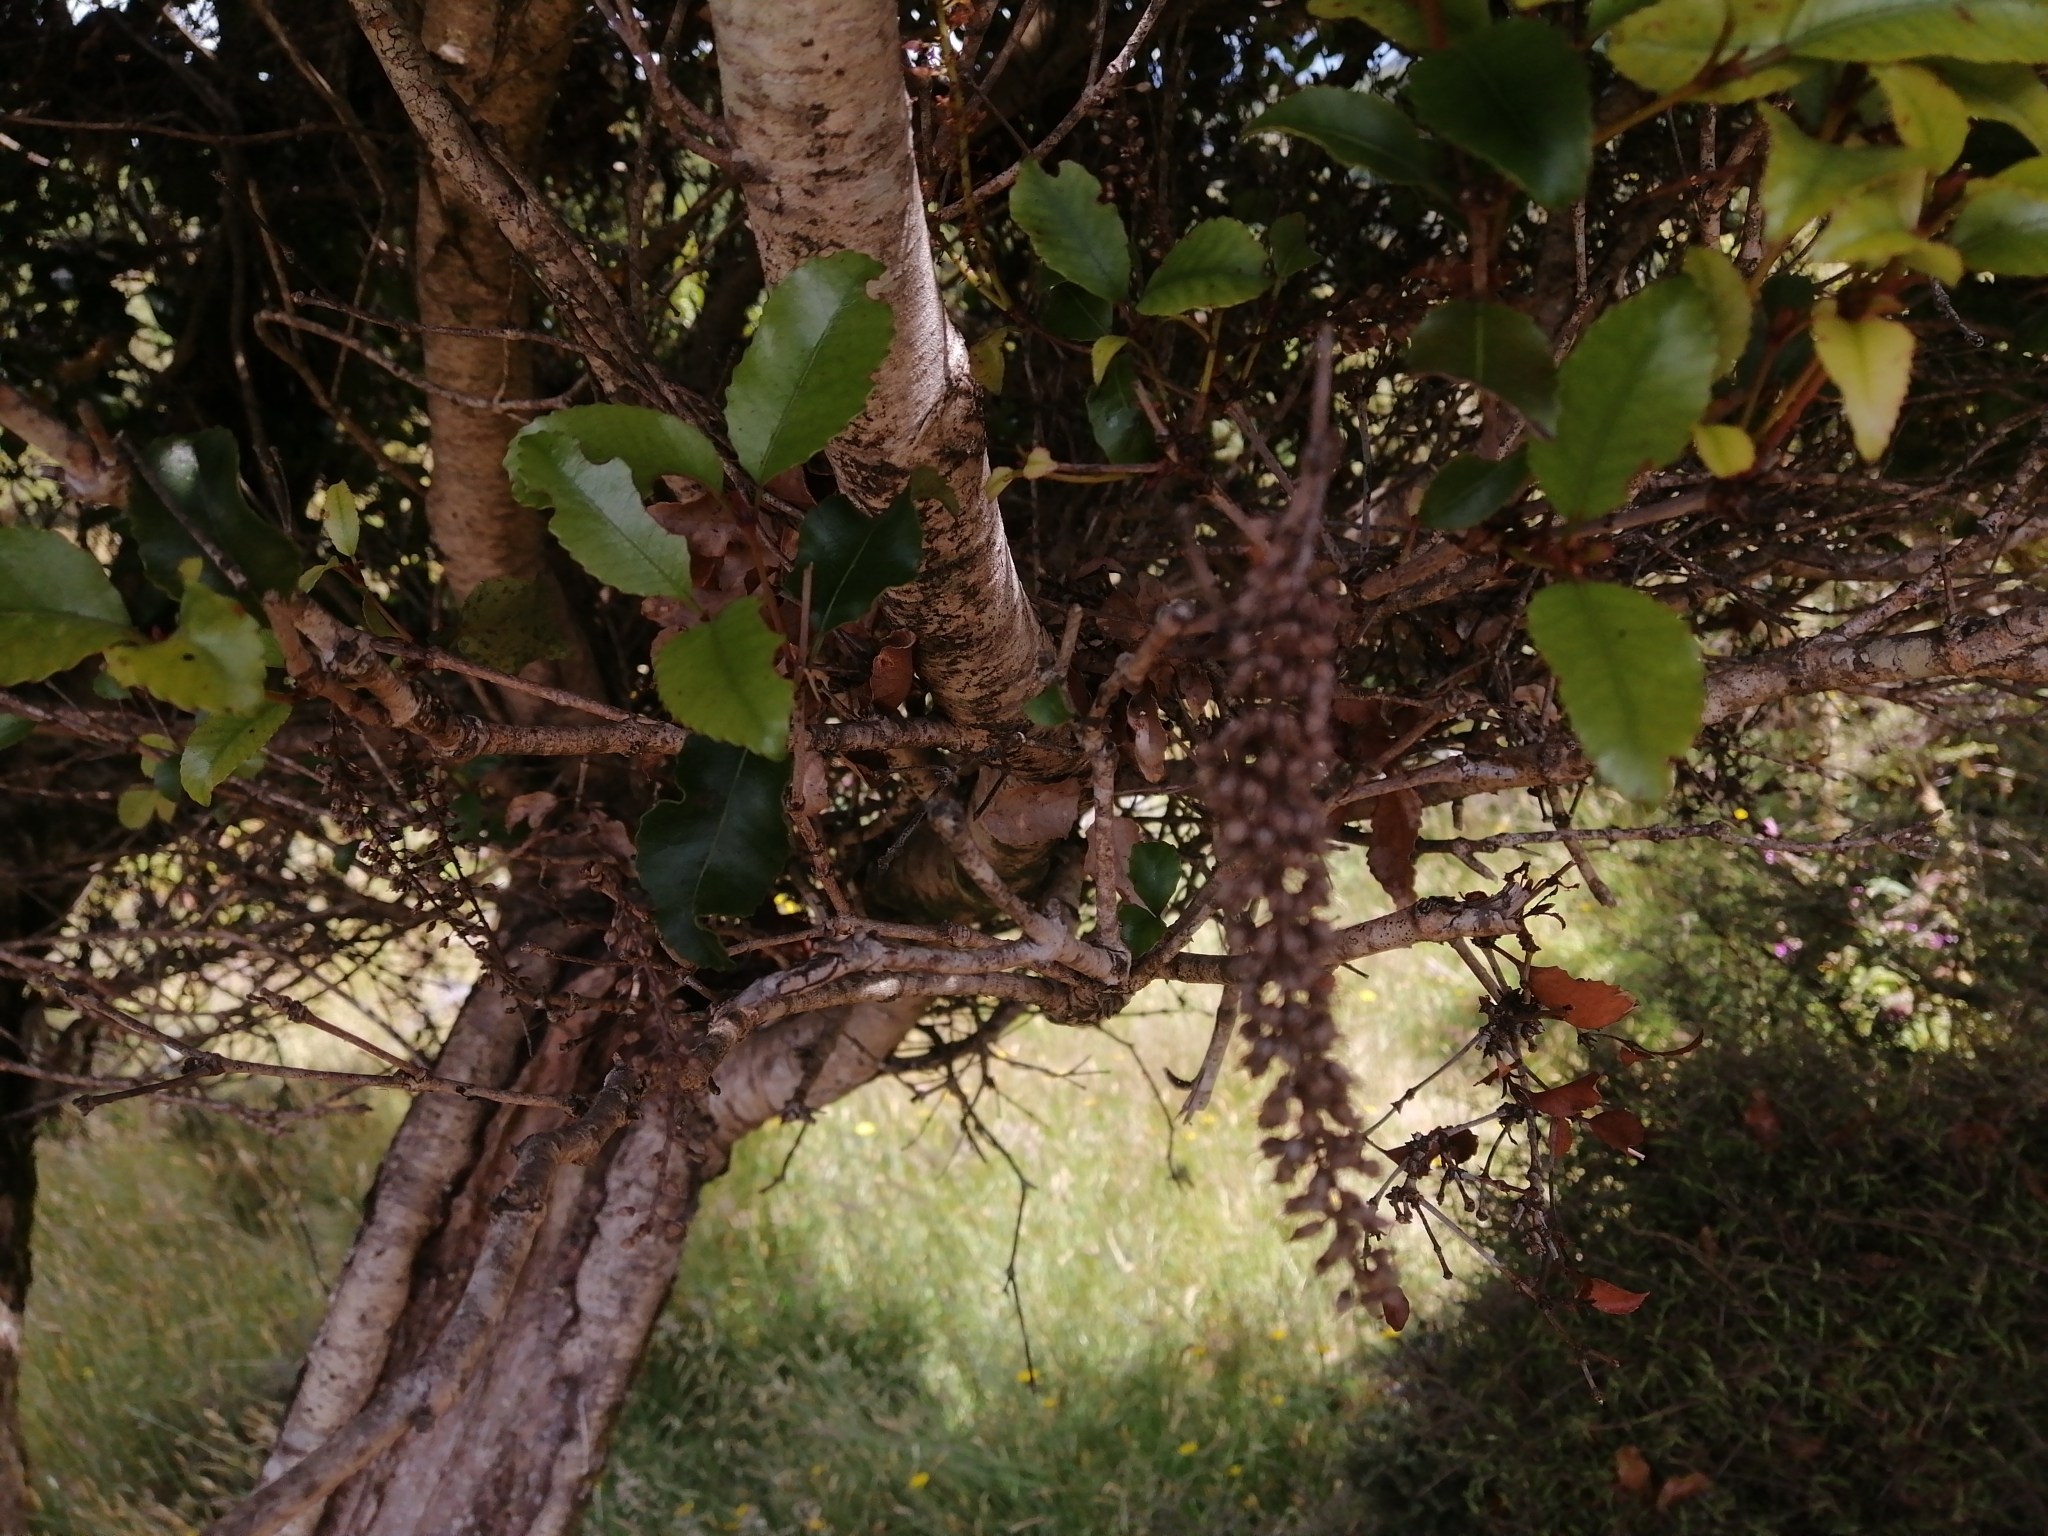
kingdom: Plantae
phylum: Tracheophyta
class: Magnoliopsida
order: Oxalidales
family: Cunoniaceae
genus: Pterophylla
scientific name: Pterophylla racemosa
